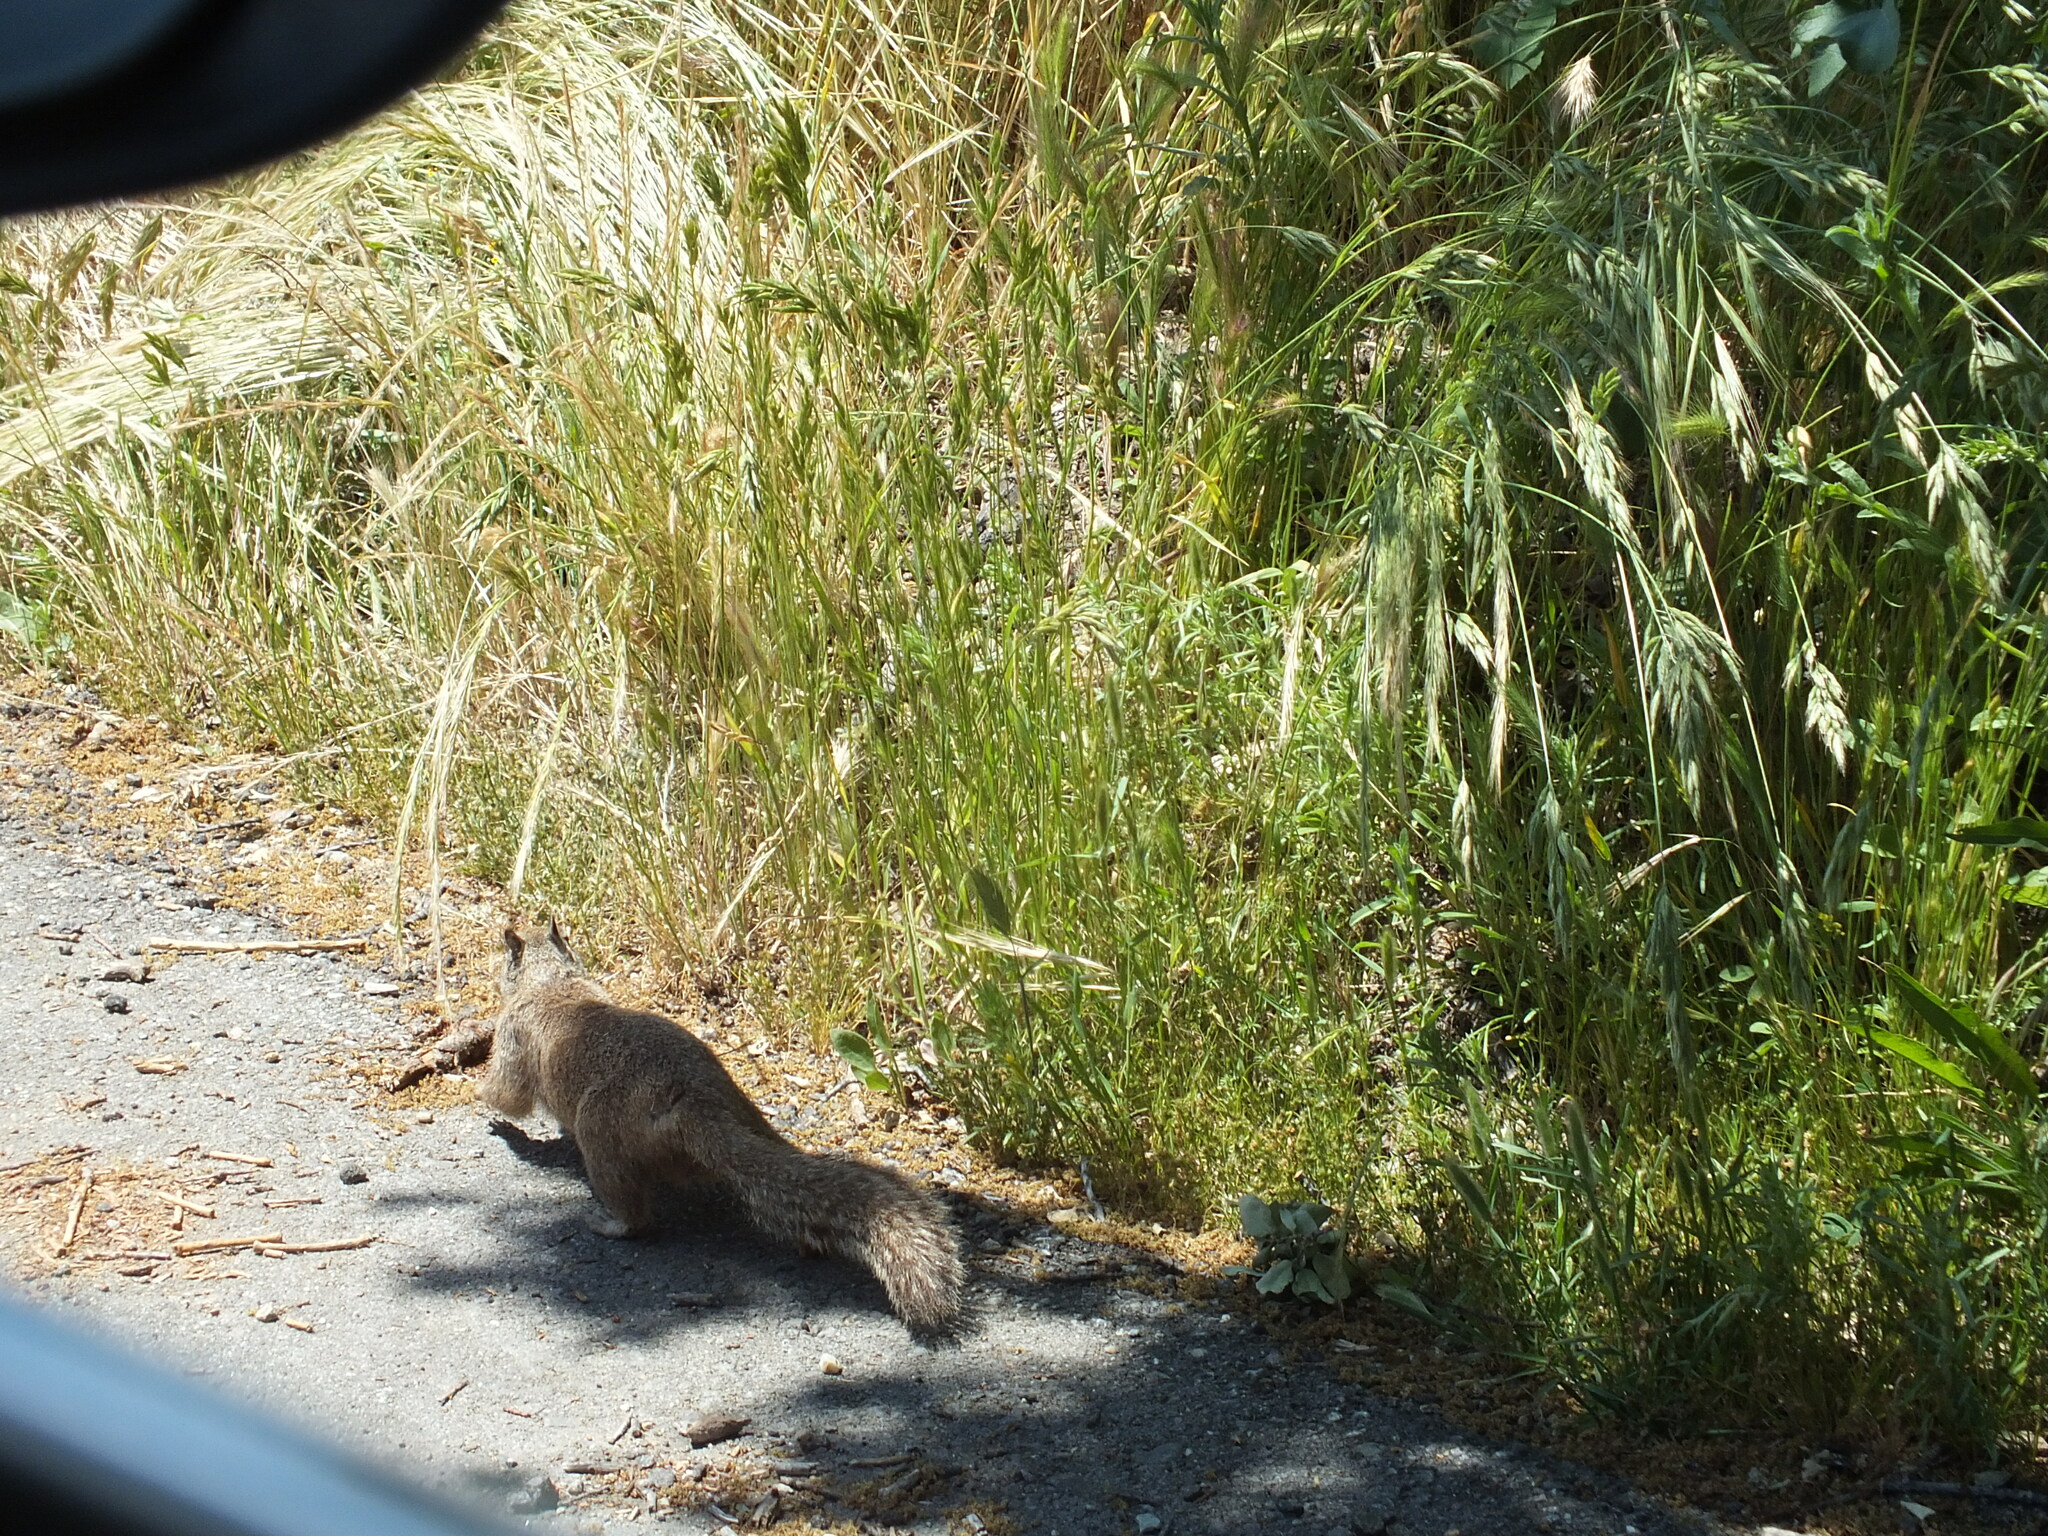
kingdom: Animalia
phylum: Chordata
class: Mammalia
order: Rodentia
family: Sciuridae
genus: Otospermophilus
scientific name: Otospermophilus beecheyi
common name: California ground squirrel
